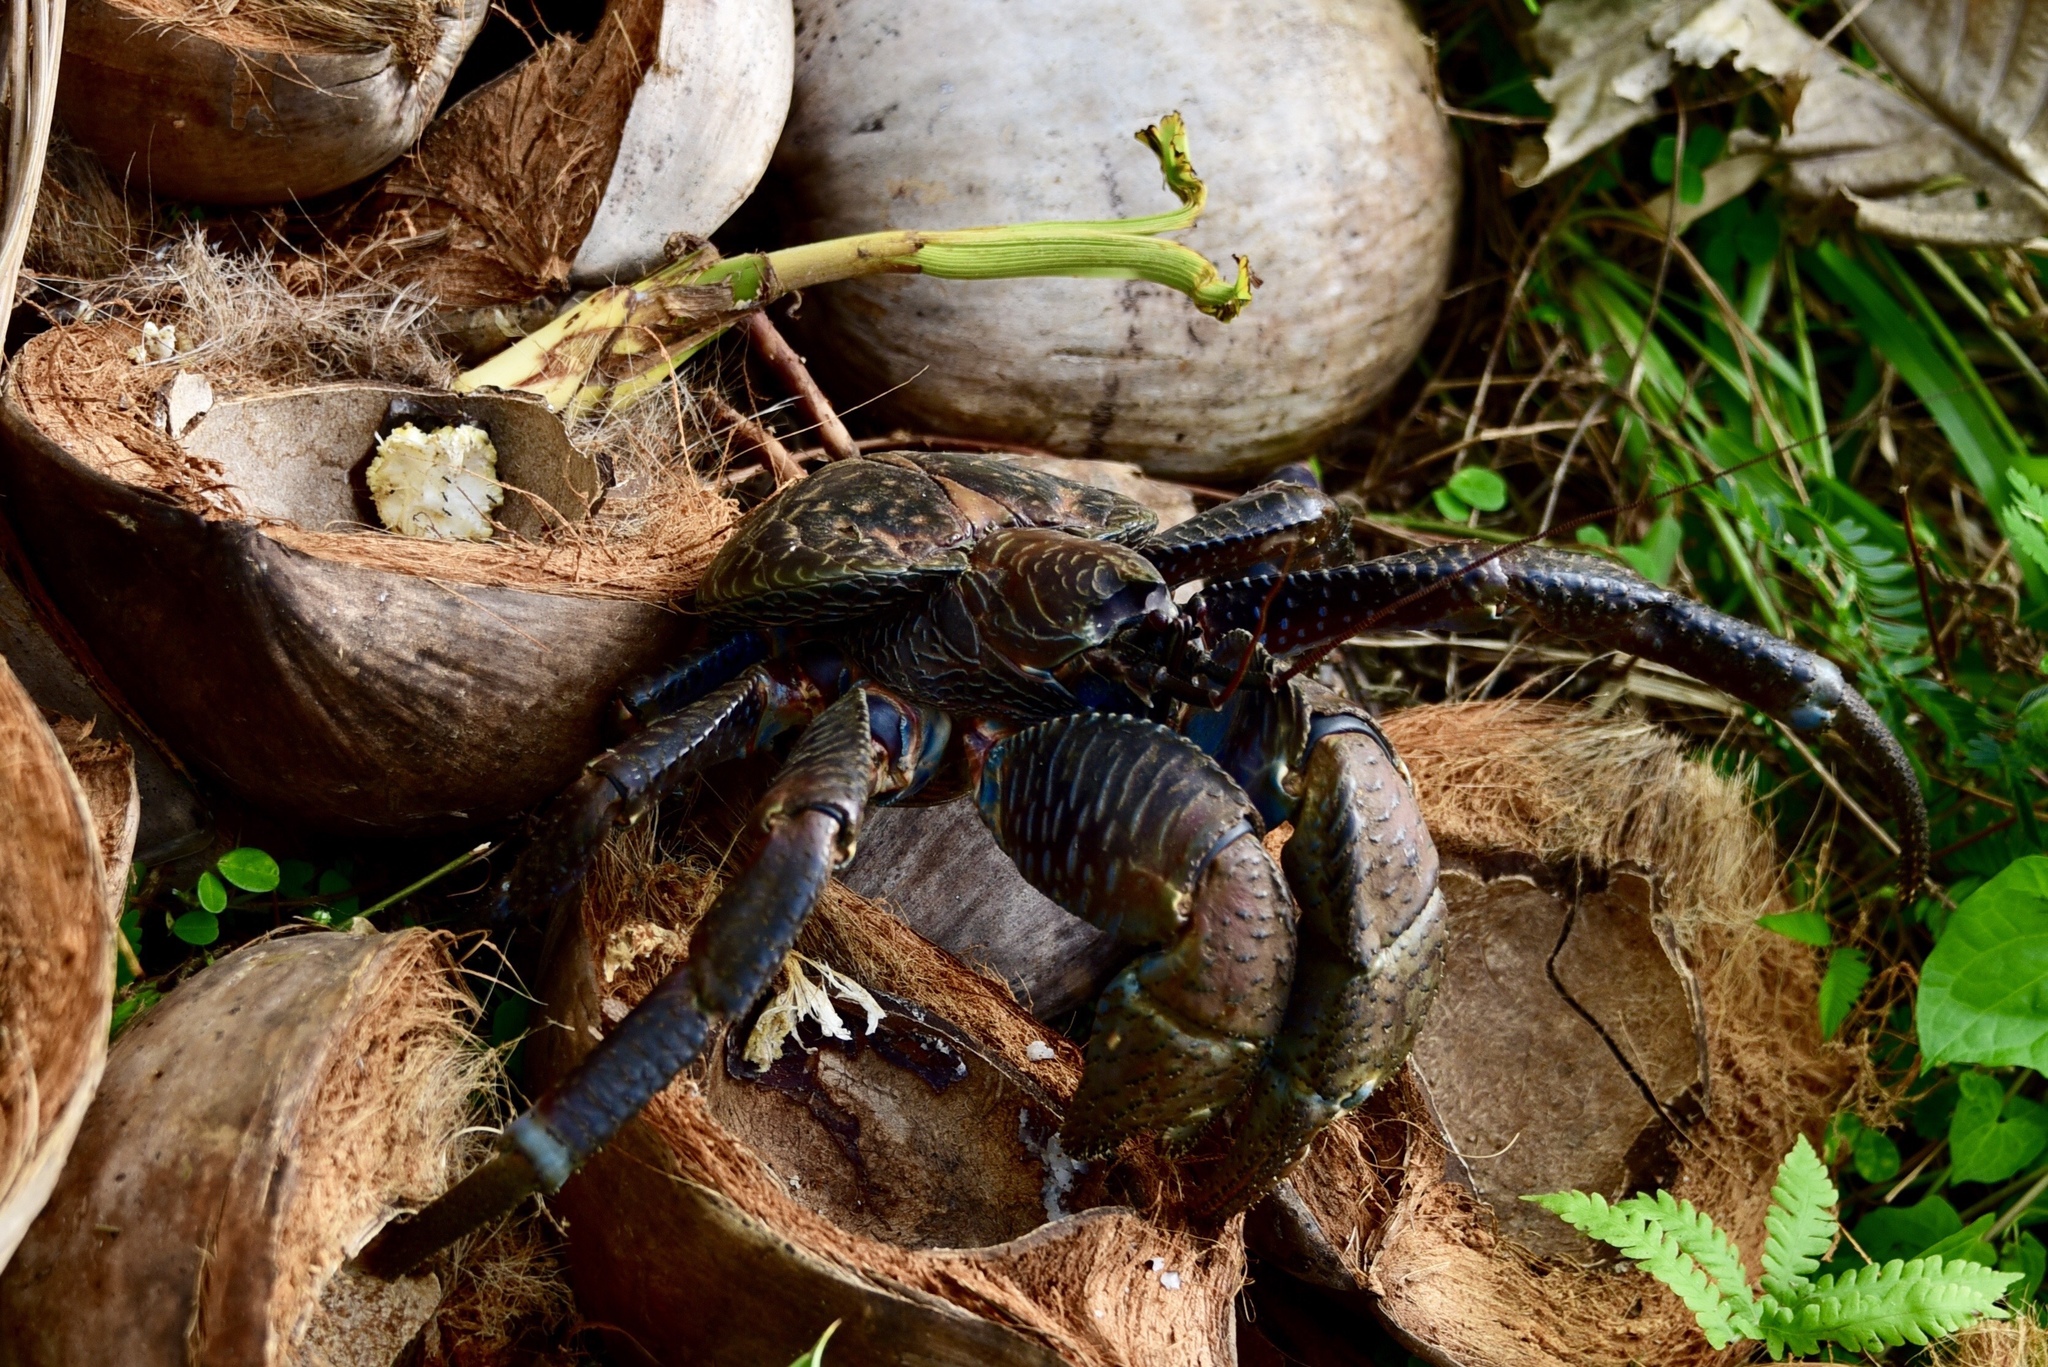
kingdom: Animalia
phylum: Arthropoda
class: Malacostraca
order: Decapoda
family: Coenobitidae
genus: Birgus
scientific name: Birgus latro
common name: Coconut crab
